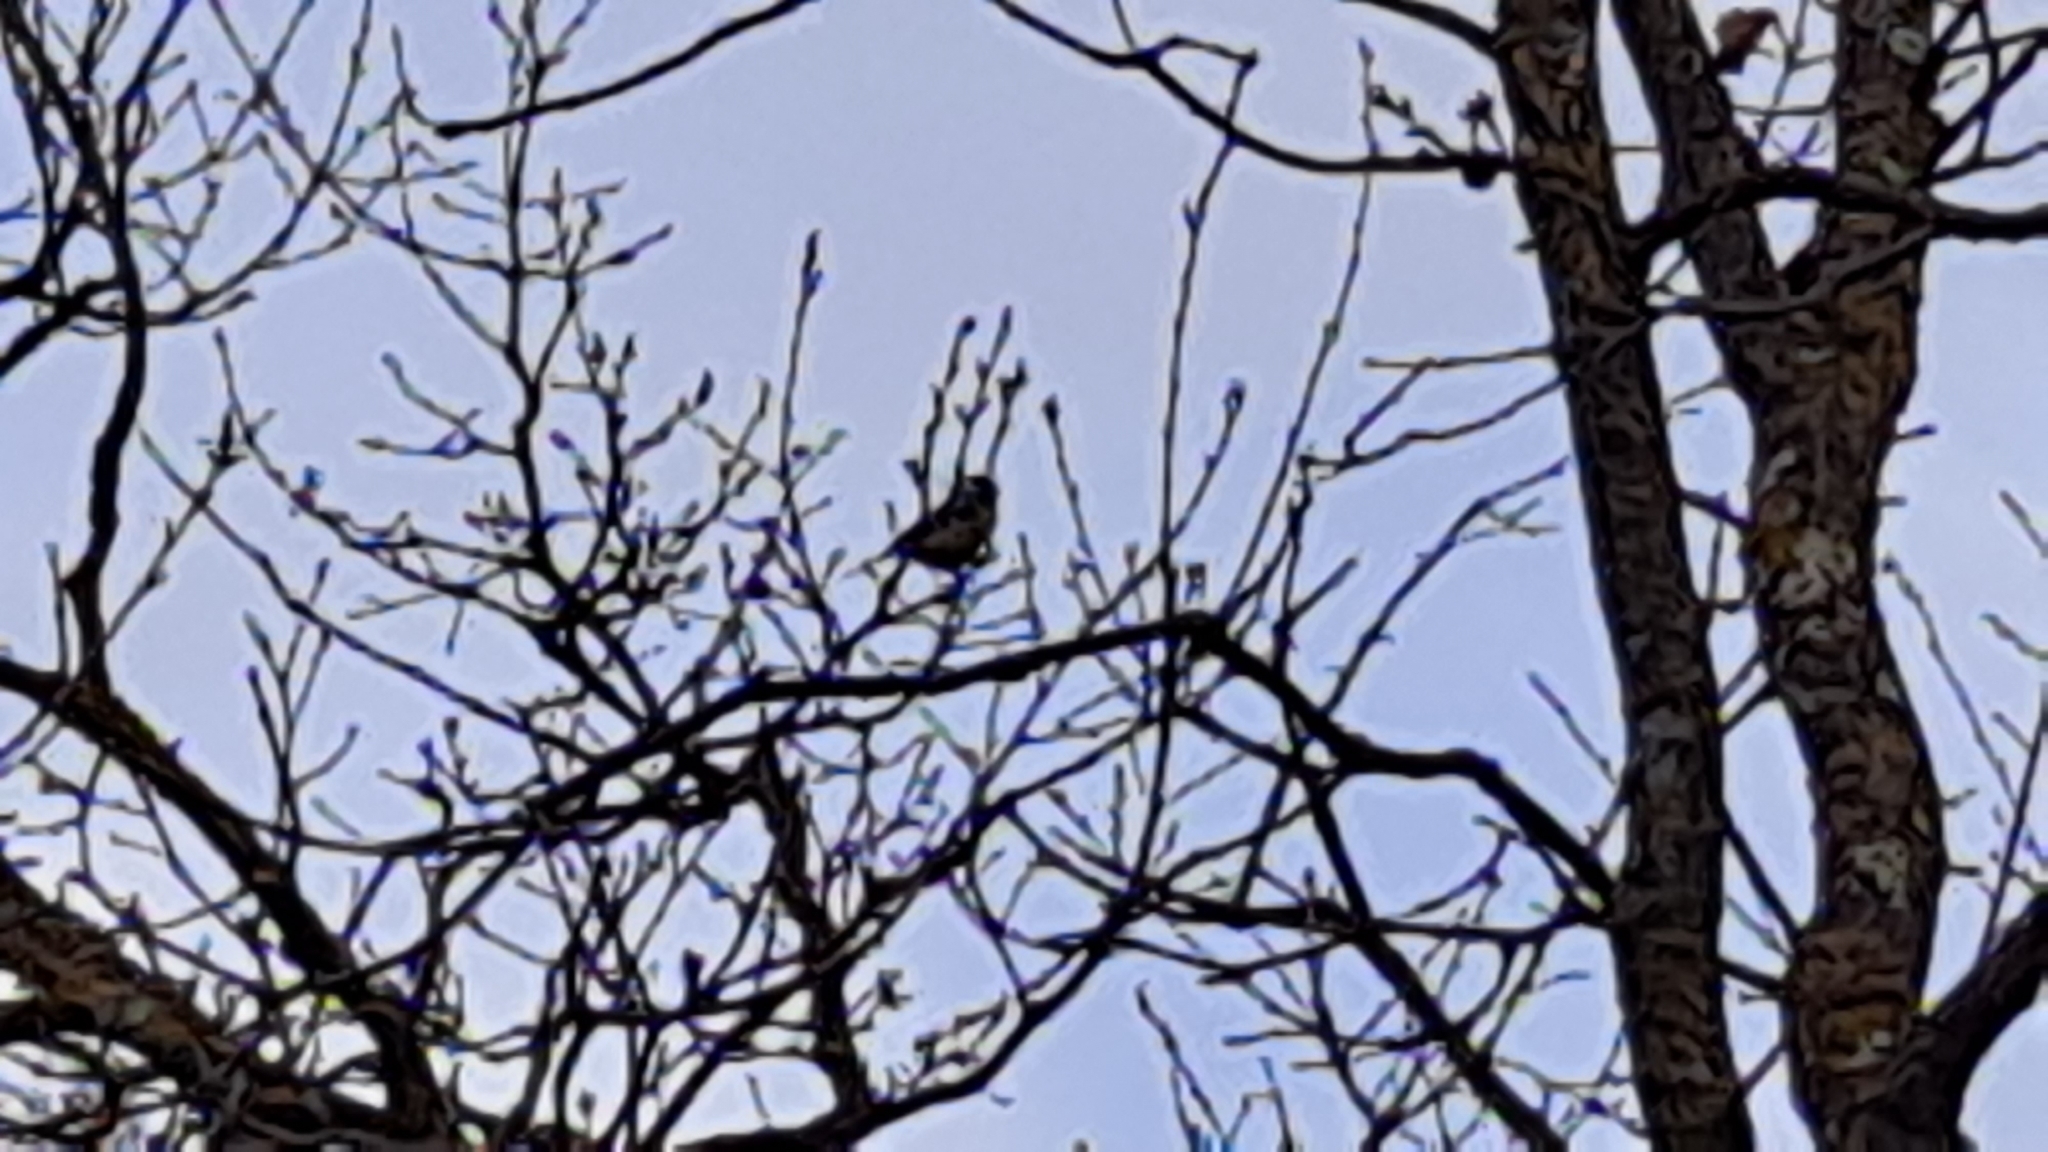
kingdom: Animalia
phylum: Chordata
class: Aves
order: Passeriformes
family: Paridae
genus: Cyanistes
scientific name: Cyanistes caeruleus
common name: Eurasian blue tit
